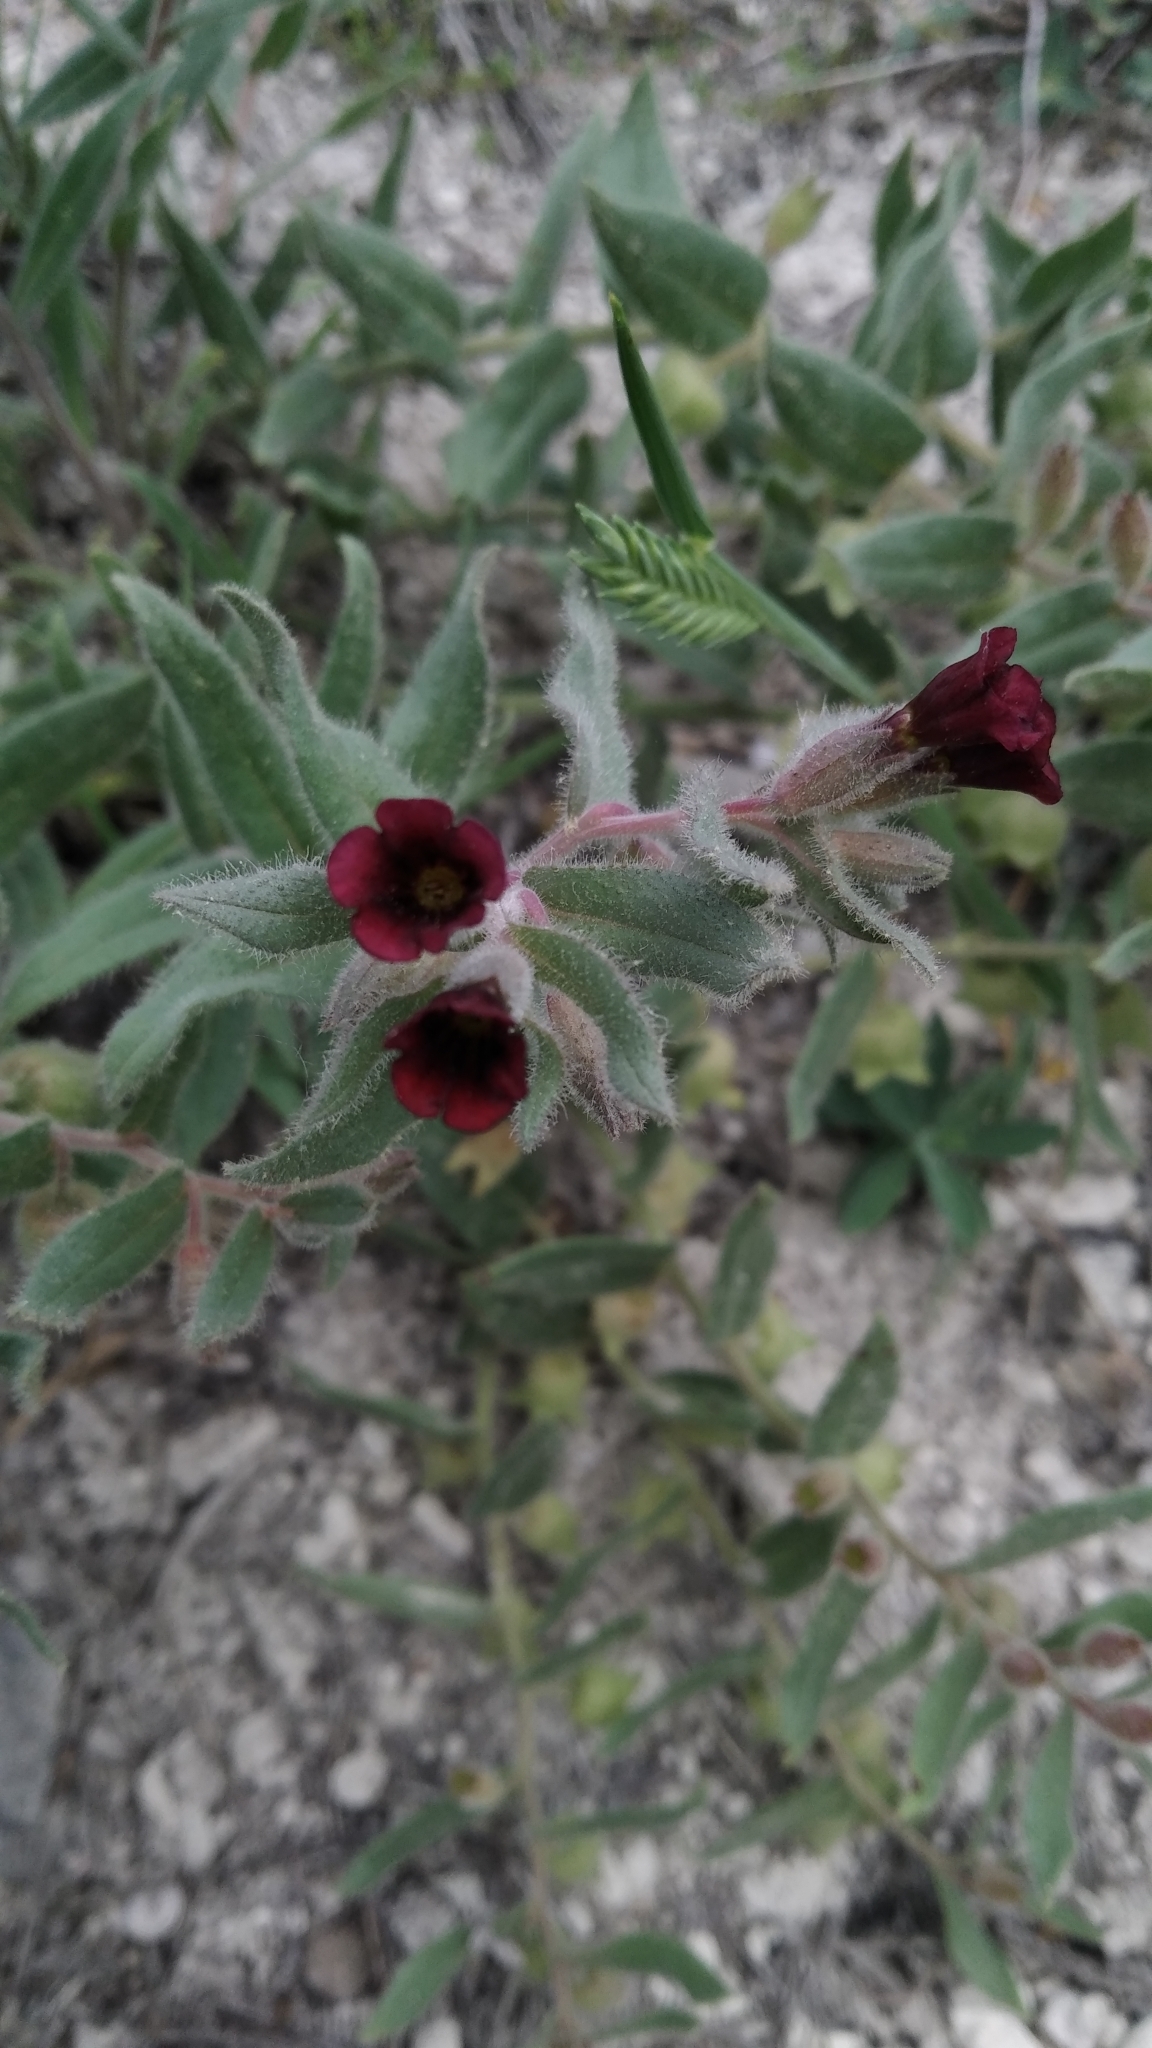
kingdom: Plantae
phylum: Tracheophyta
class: Magnoliopsida
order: Boraginales
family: Boraginaceae
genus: Nonea
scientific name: Nonea pulla
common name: Brown nonea
